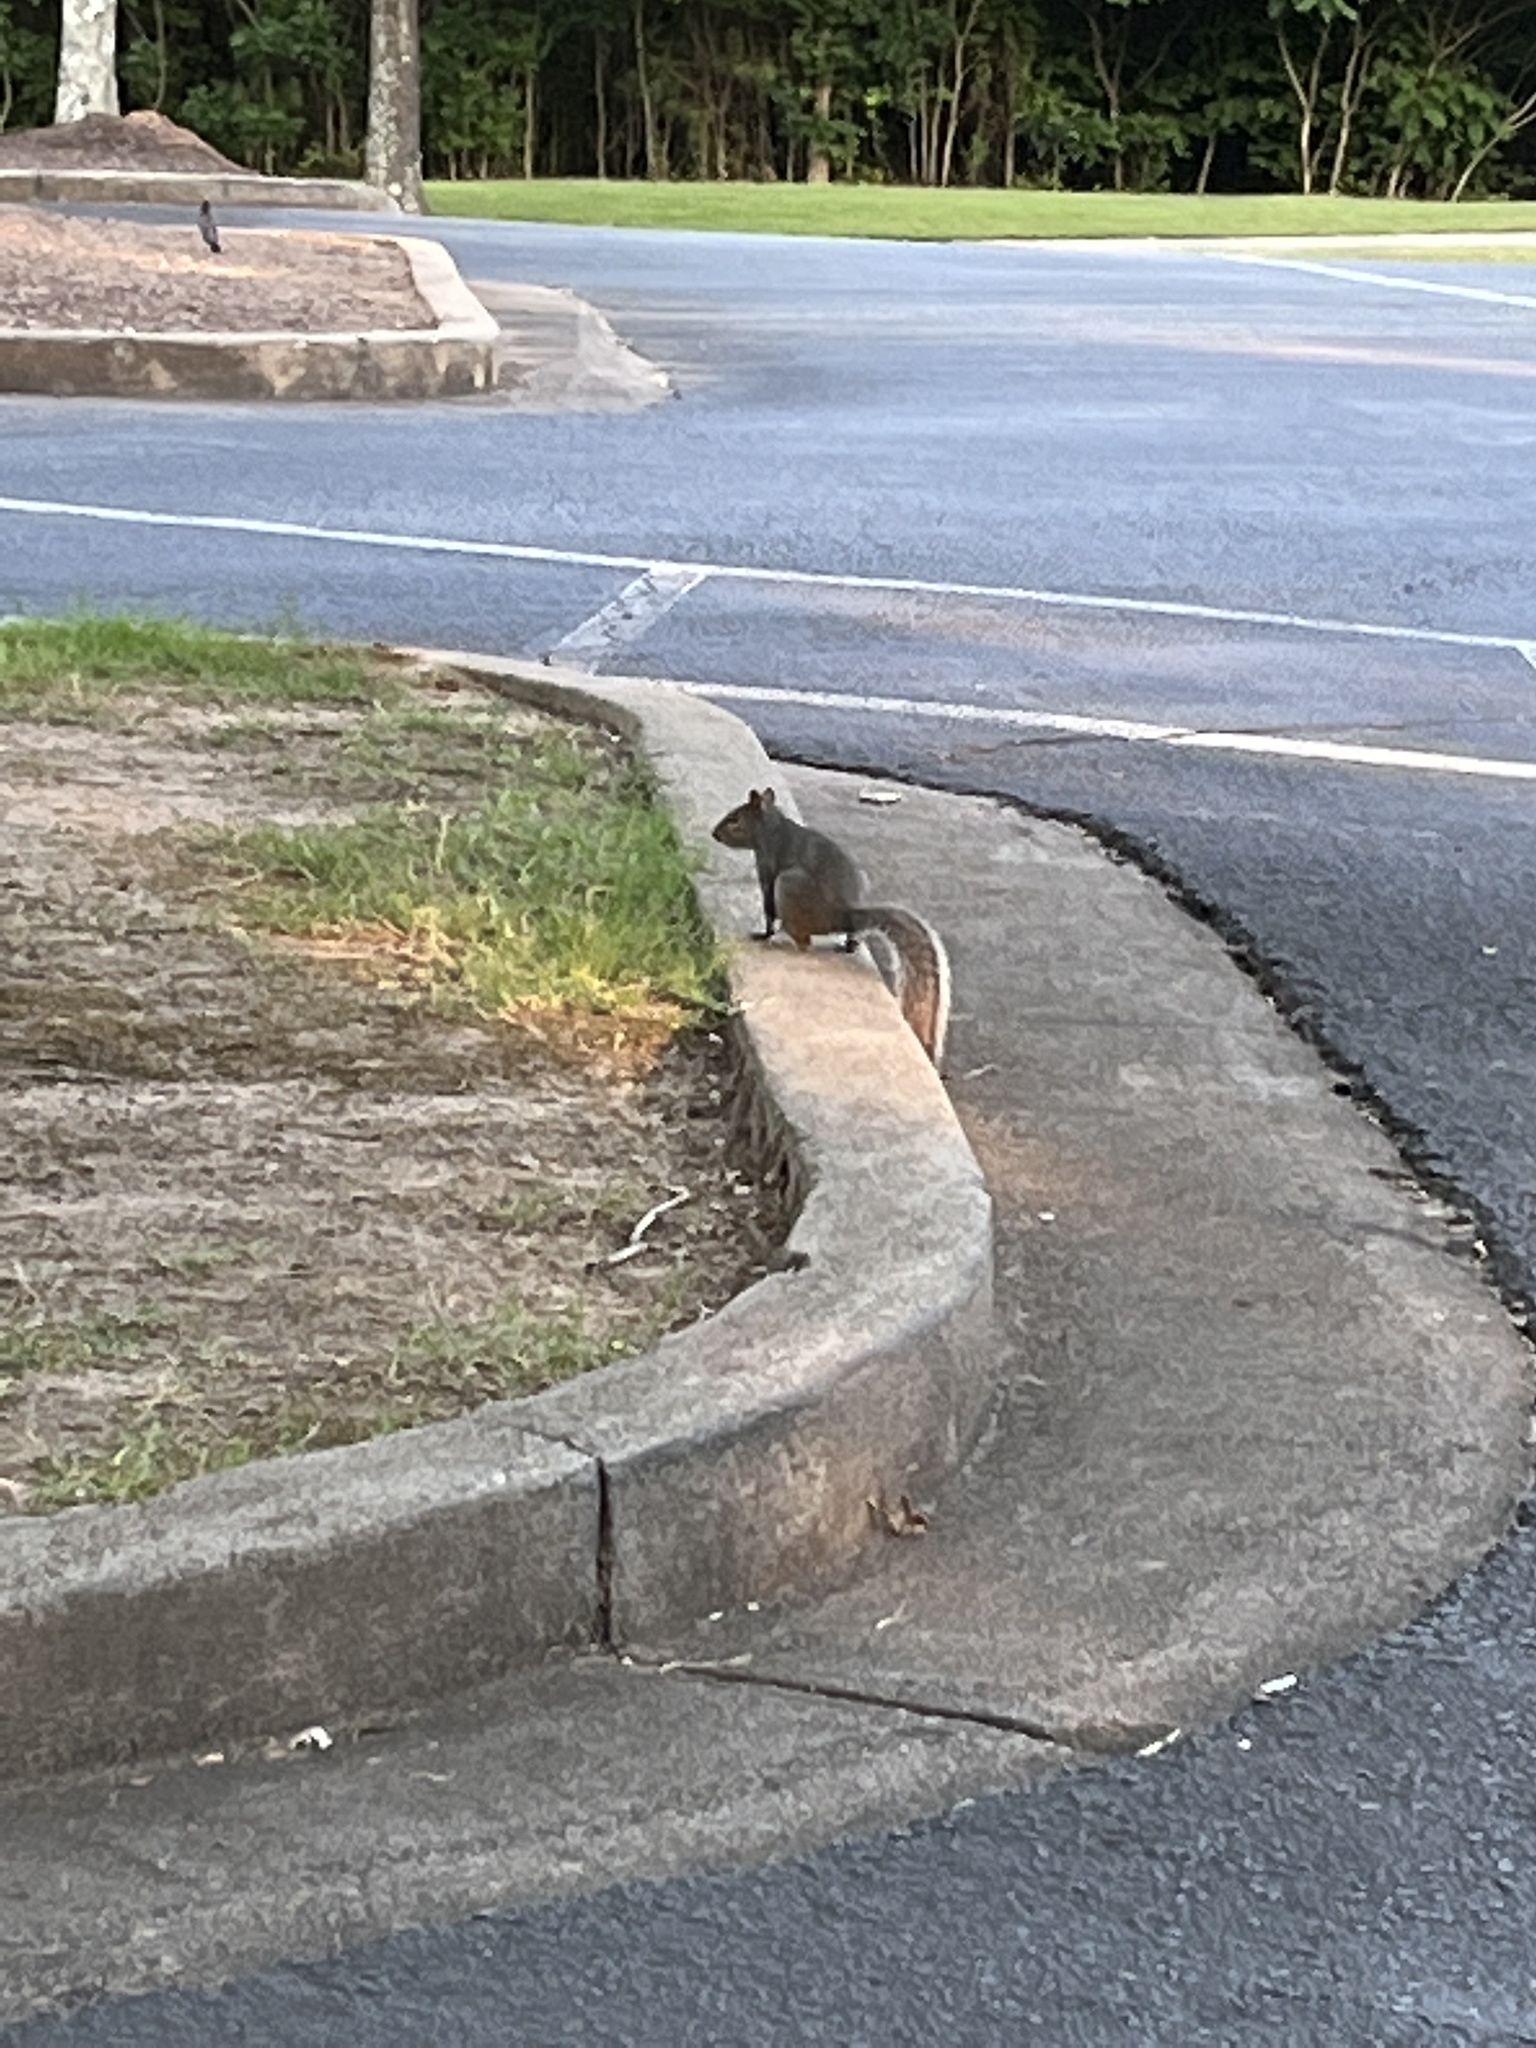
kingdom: Animalia
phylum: Chordata
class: Mammalia
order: Rodentia
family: Sciuridae
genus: Sciurus
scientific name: Sciurus carolinensis
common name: Eastern gray squirrel
